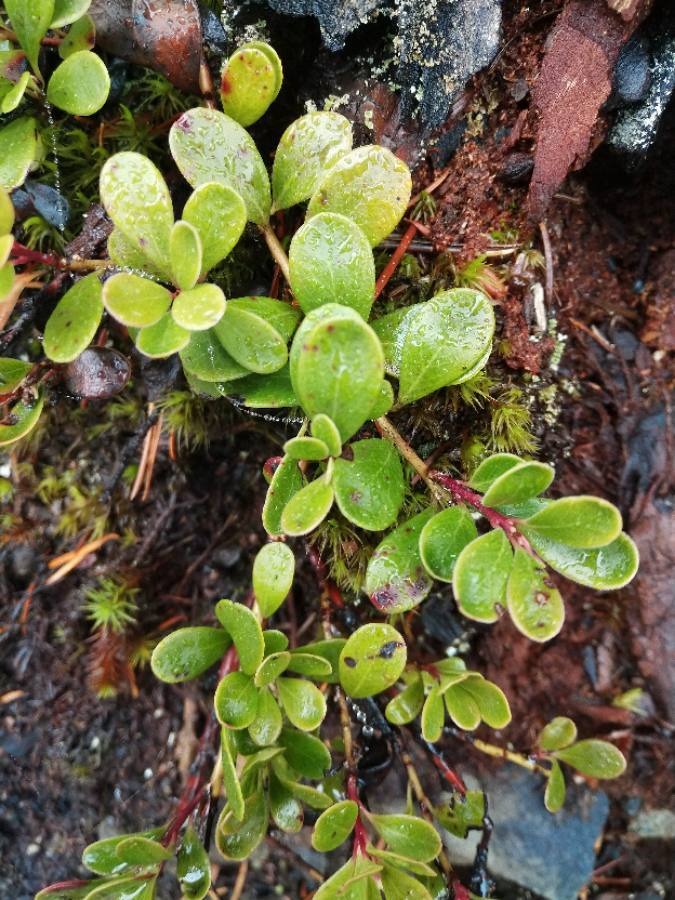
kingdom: Plantae
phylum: Tracheophyta
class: Magnoliopsida
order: Ericales
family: Ericaceae
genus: Arctostaphylos
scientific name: Arctostaphylos uva-ursi
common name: Bearberry
